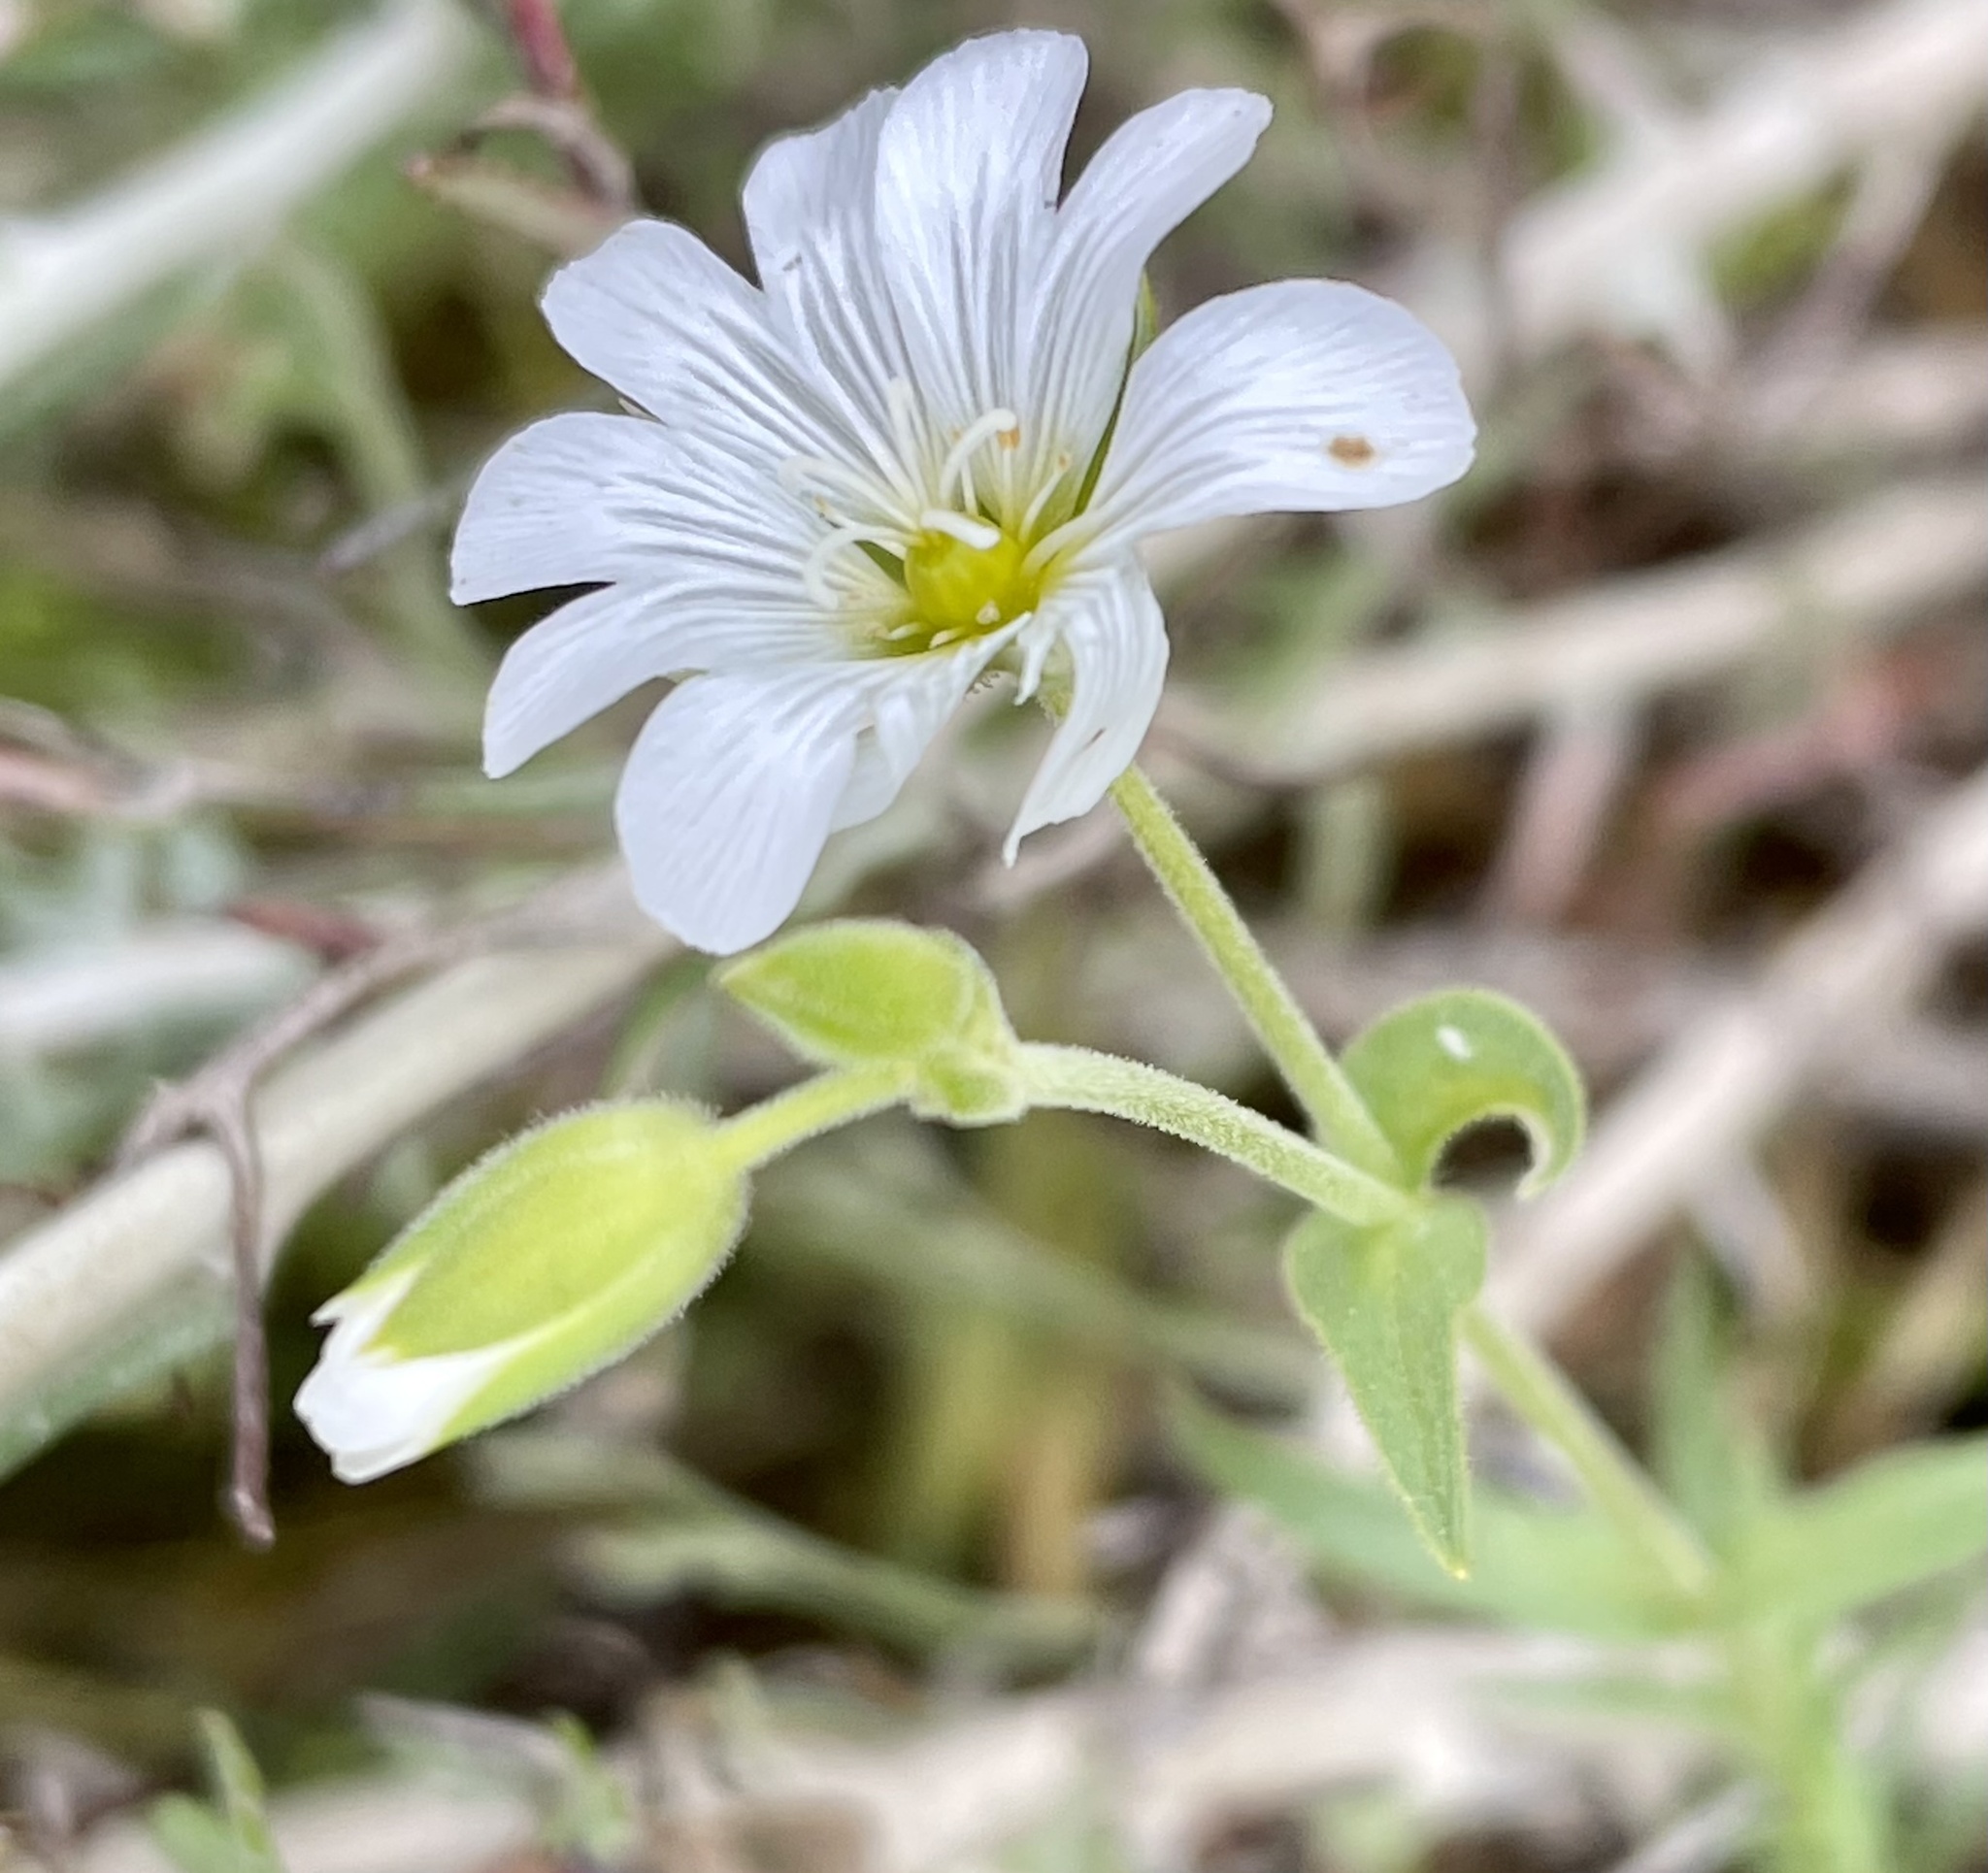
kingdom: Plantae
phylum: Tracheophyta
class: Magnoliopsida
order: Caryophyllales
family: Caryophyllaceae
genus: Cerastium
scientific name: Cerastium arvense
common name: Field mouse-ear
